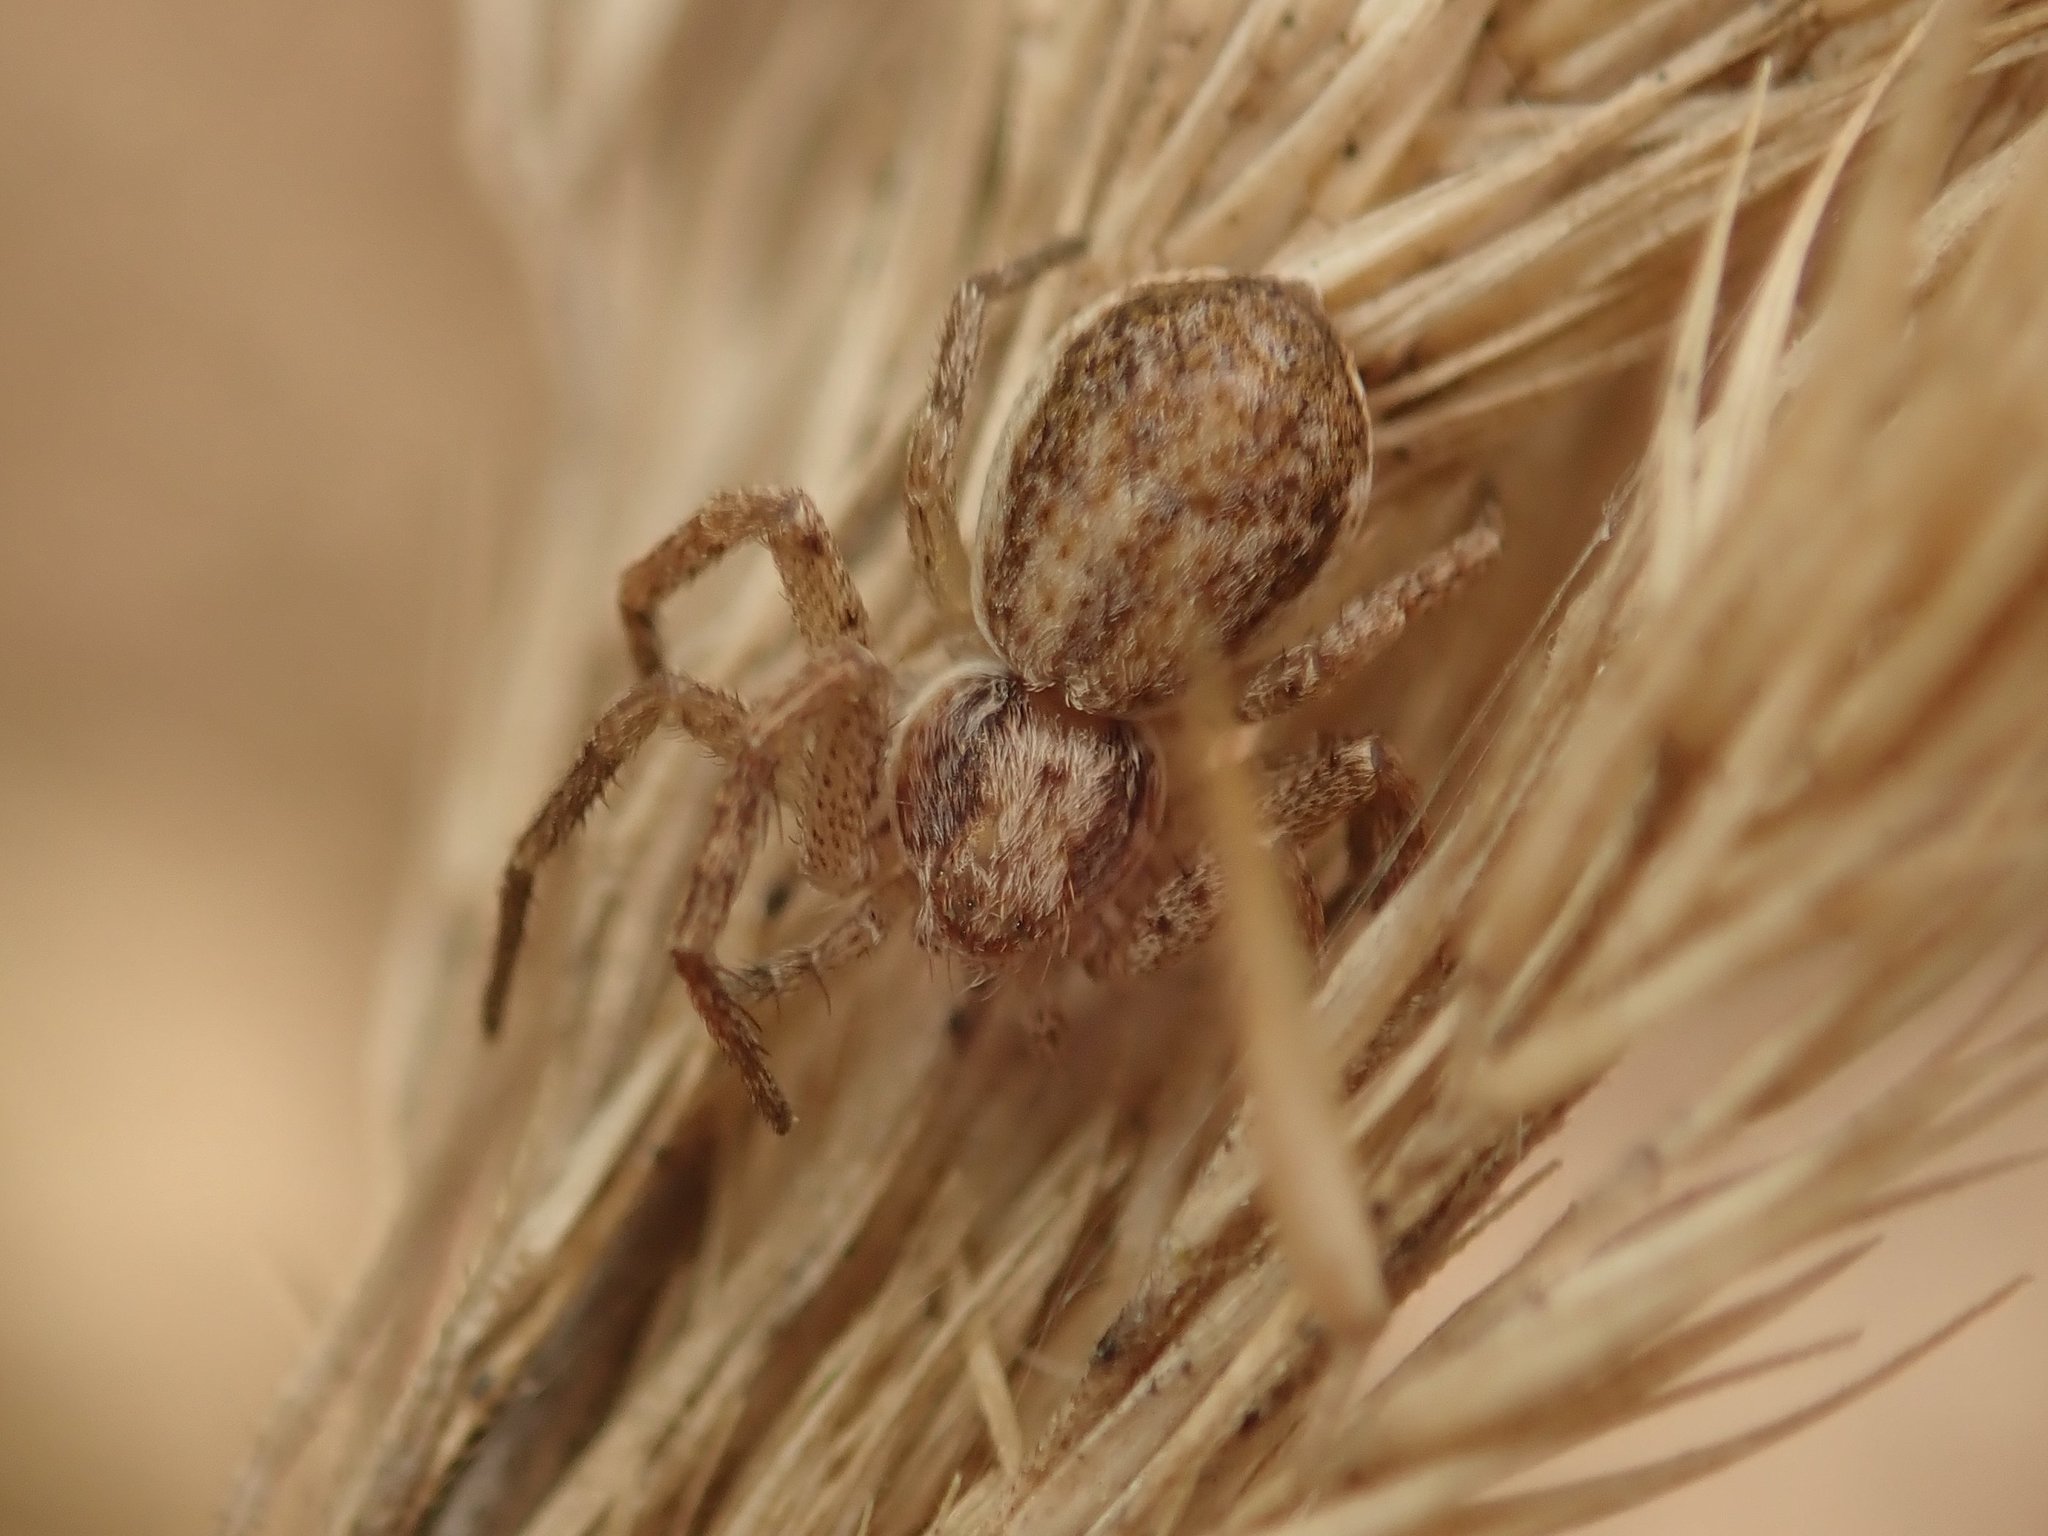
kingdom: Animalia
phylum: Arthropoda
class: Arachnida
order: Araneae
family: Philodromidae
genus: Philodromus
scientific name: Philodromus dispar
